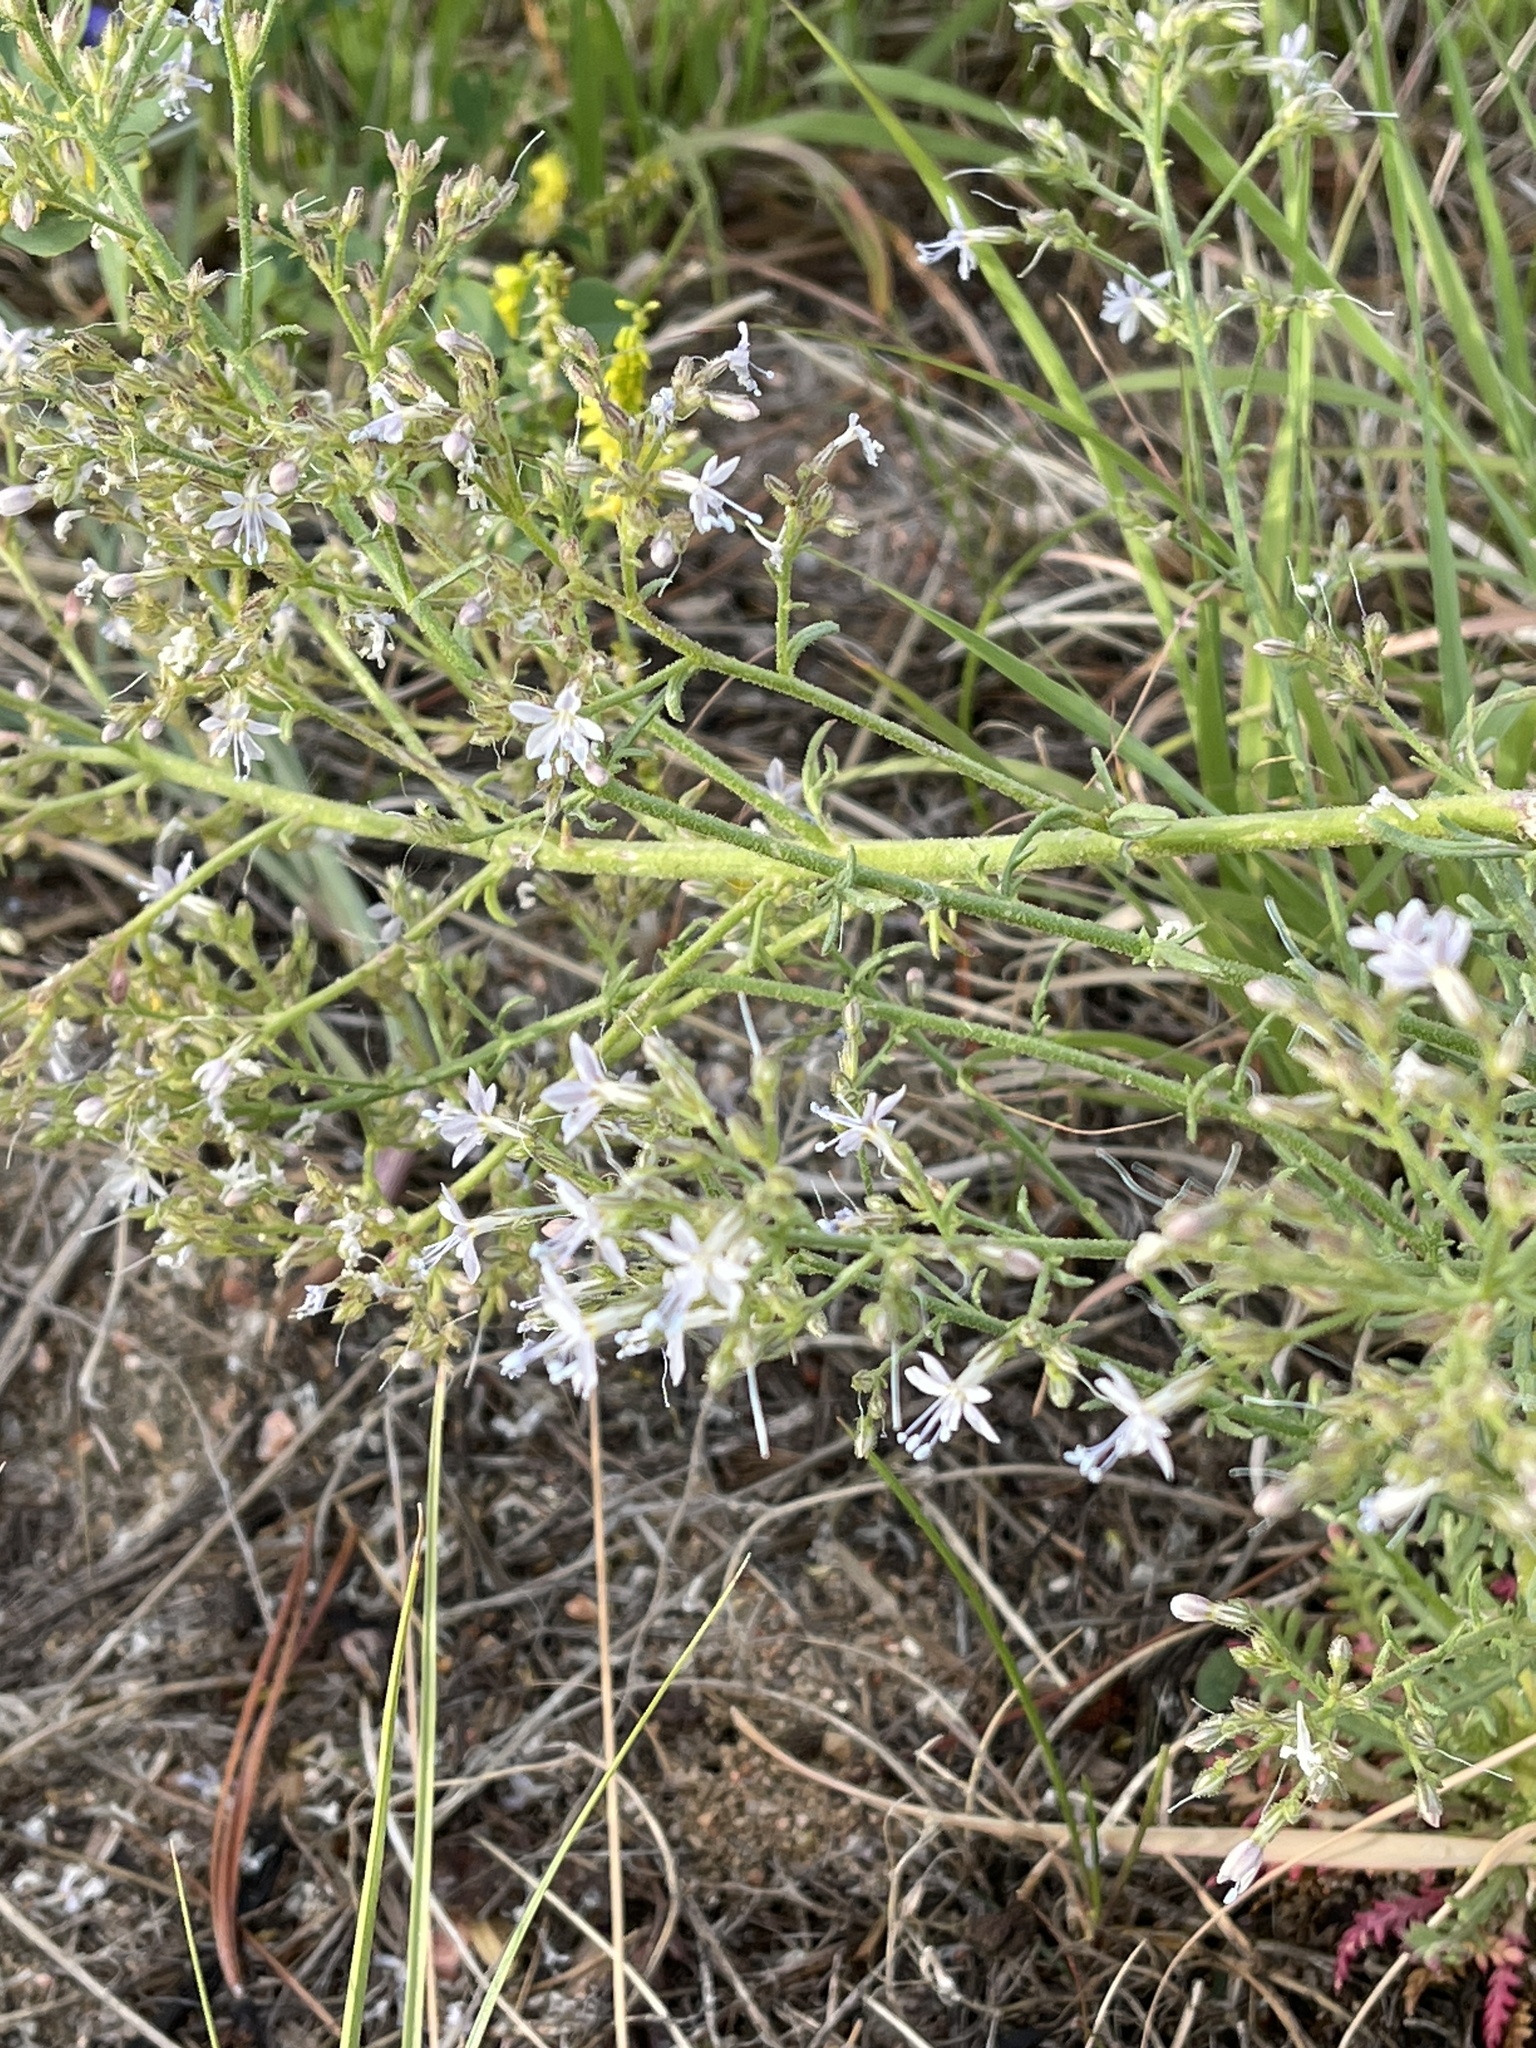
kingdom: Plantae
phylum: Tracheophyta
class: Magnoliopsida
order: Ericales
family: Polemoniaceae
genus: Aliciella
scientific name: Aliciella pinnatifida
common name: Sticky gilia
